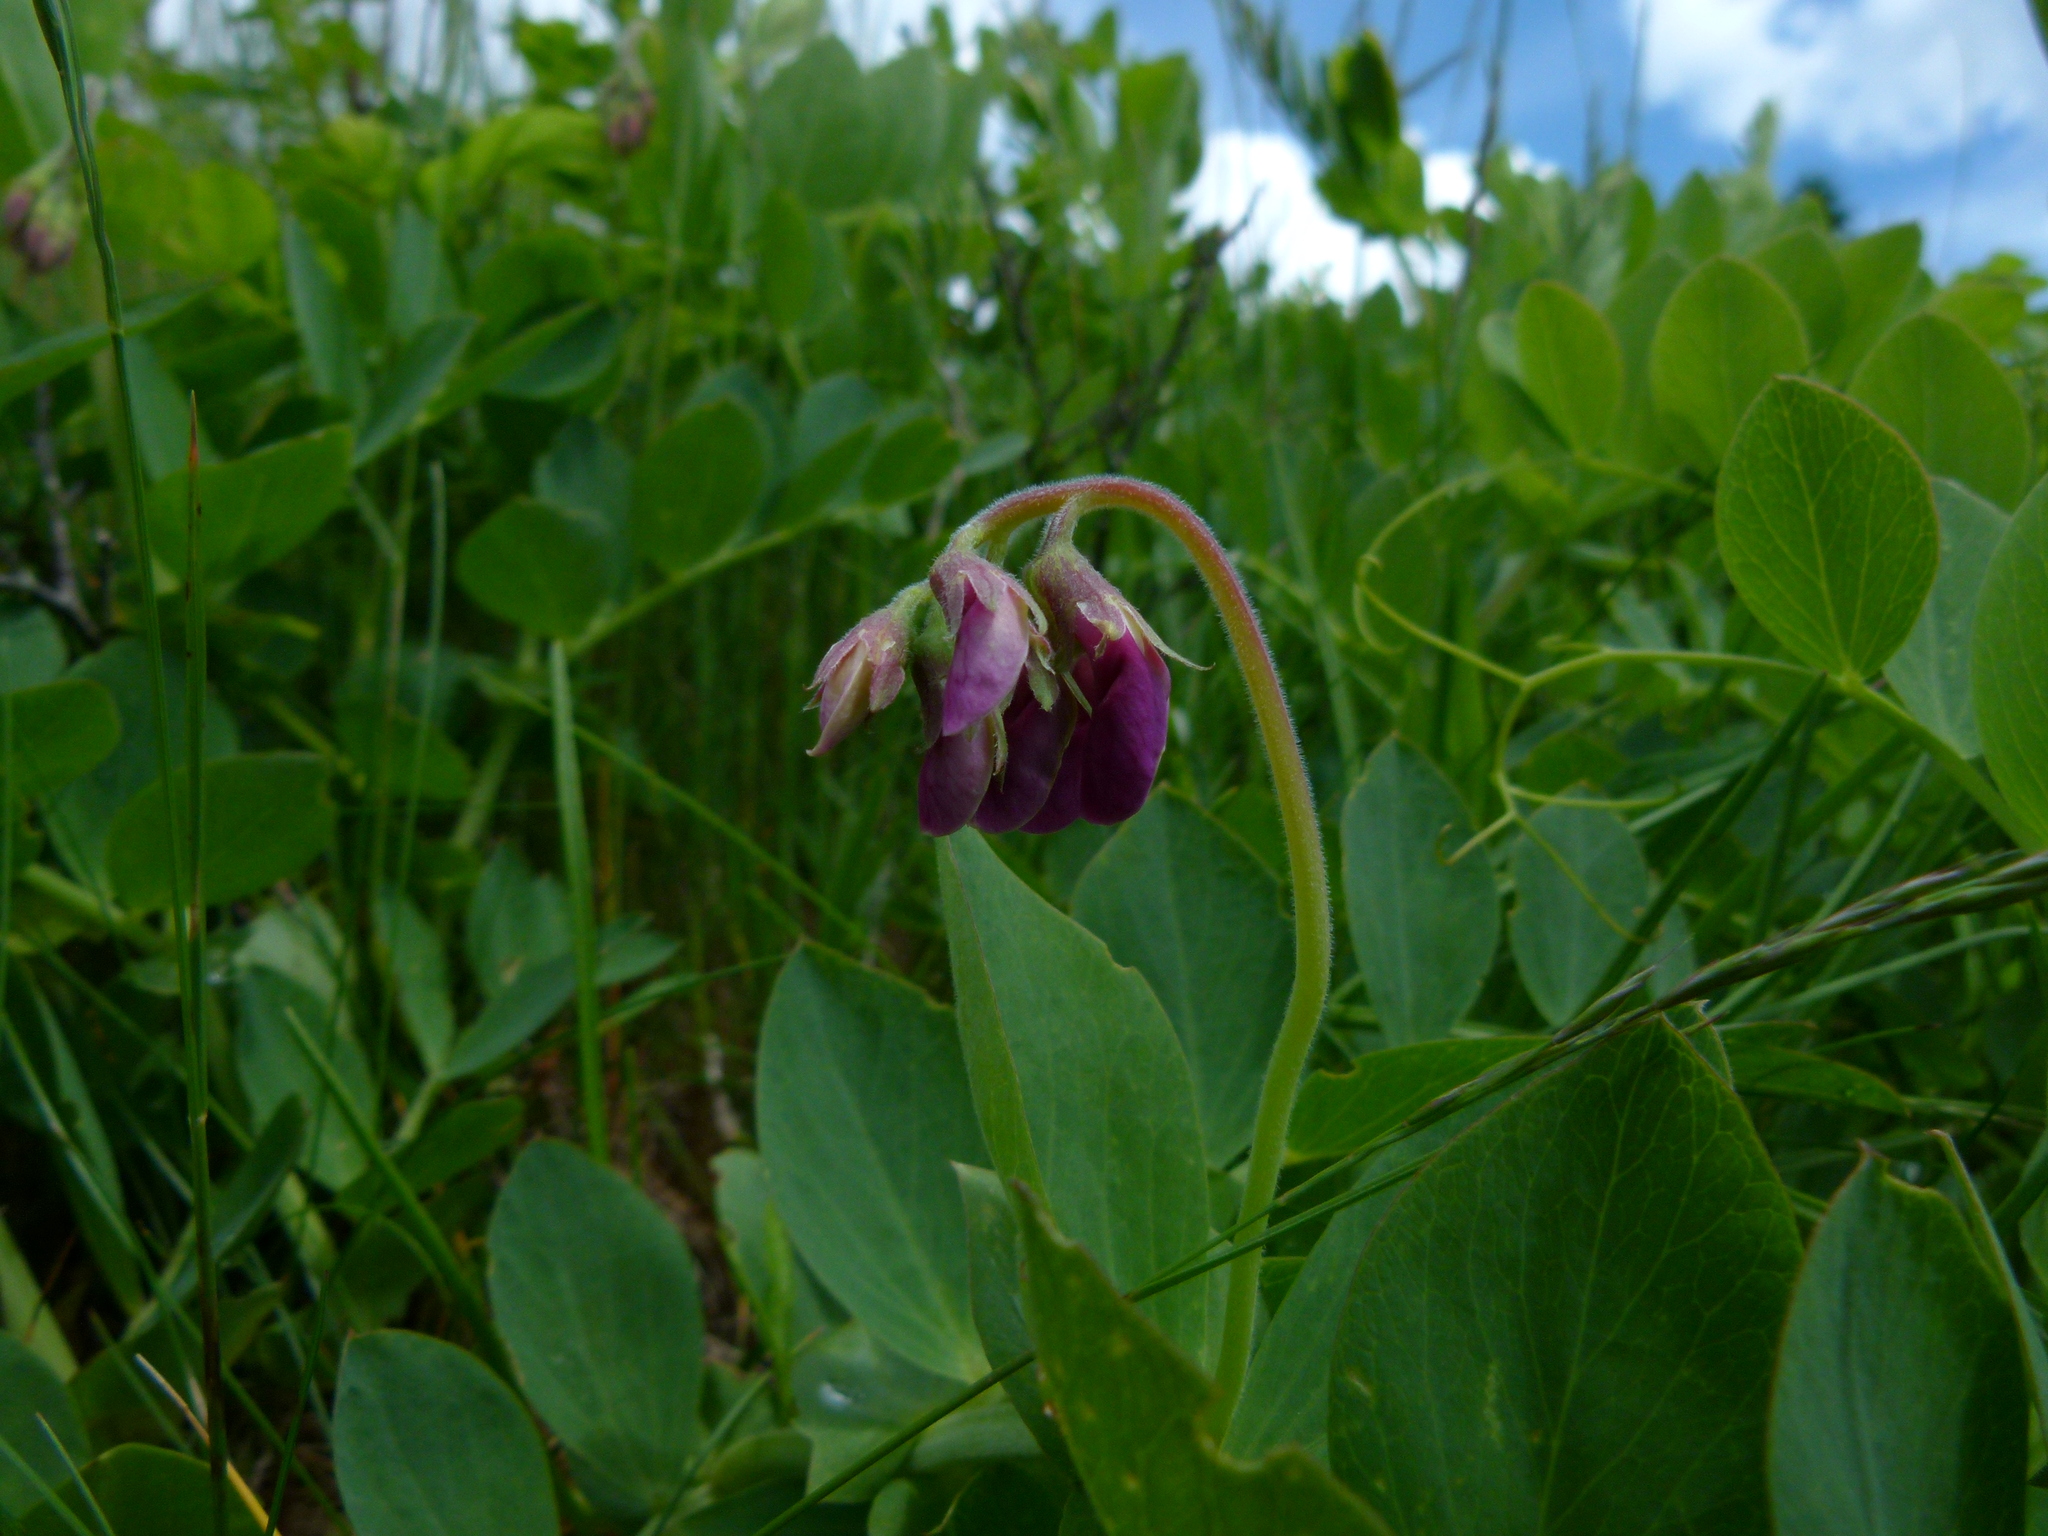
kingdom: Plantae
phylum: Tracheophyta
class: Magnoliopsida
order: Fabales
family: Fabaceae
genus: Lathyrus
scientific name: Lathyrus japonicus
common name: Sea pea
